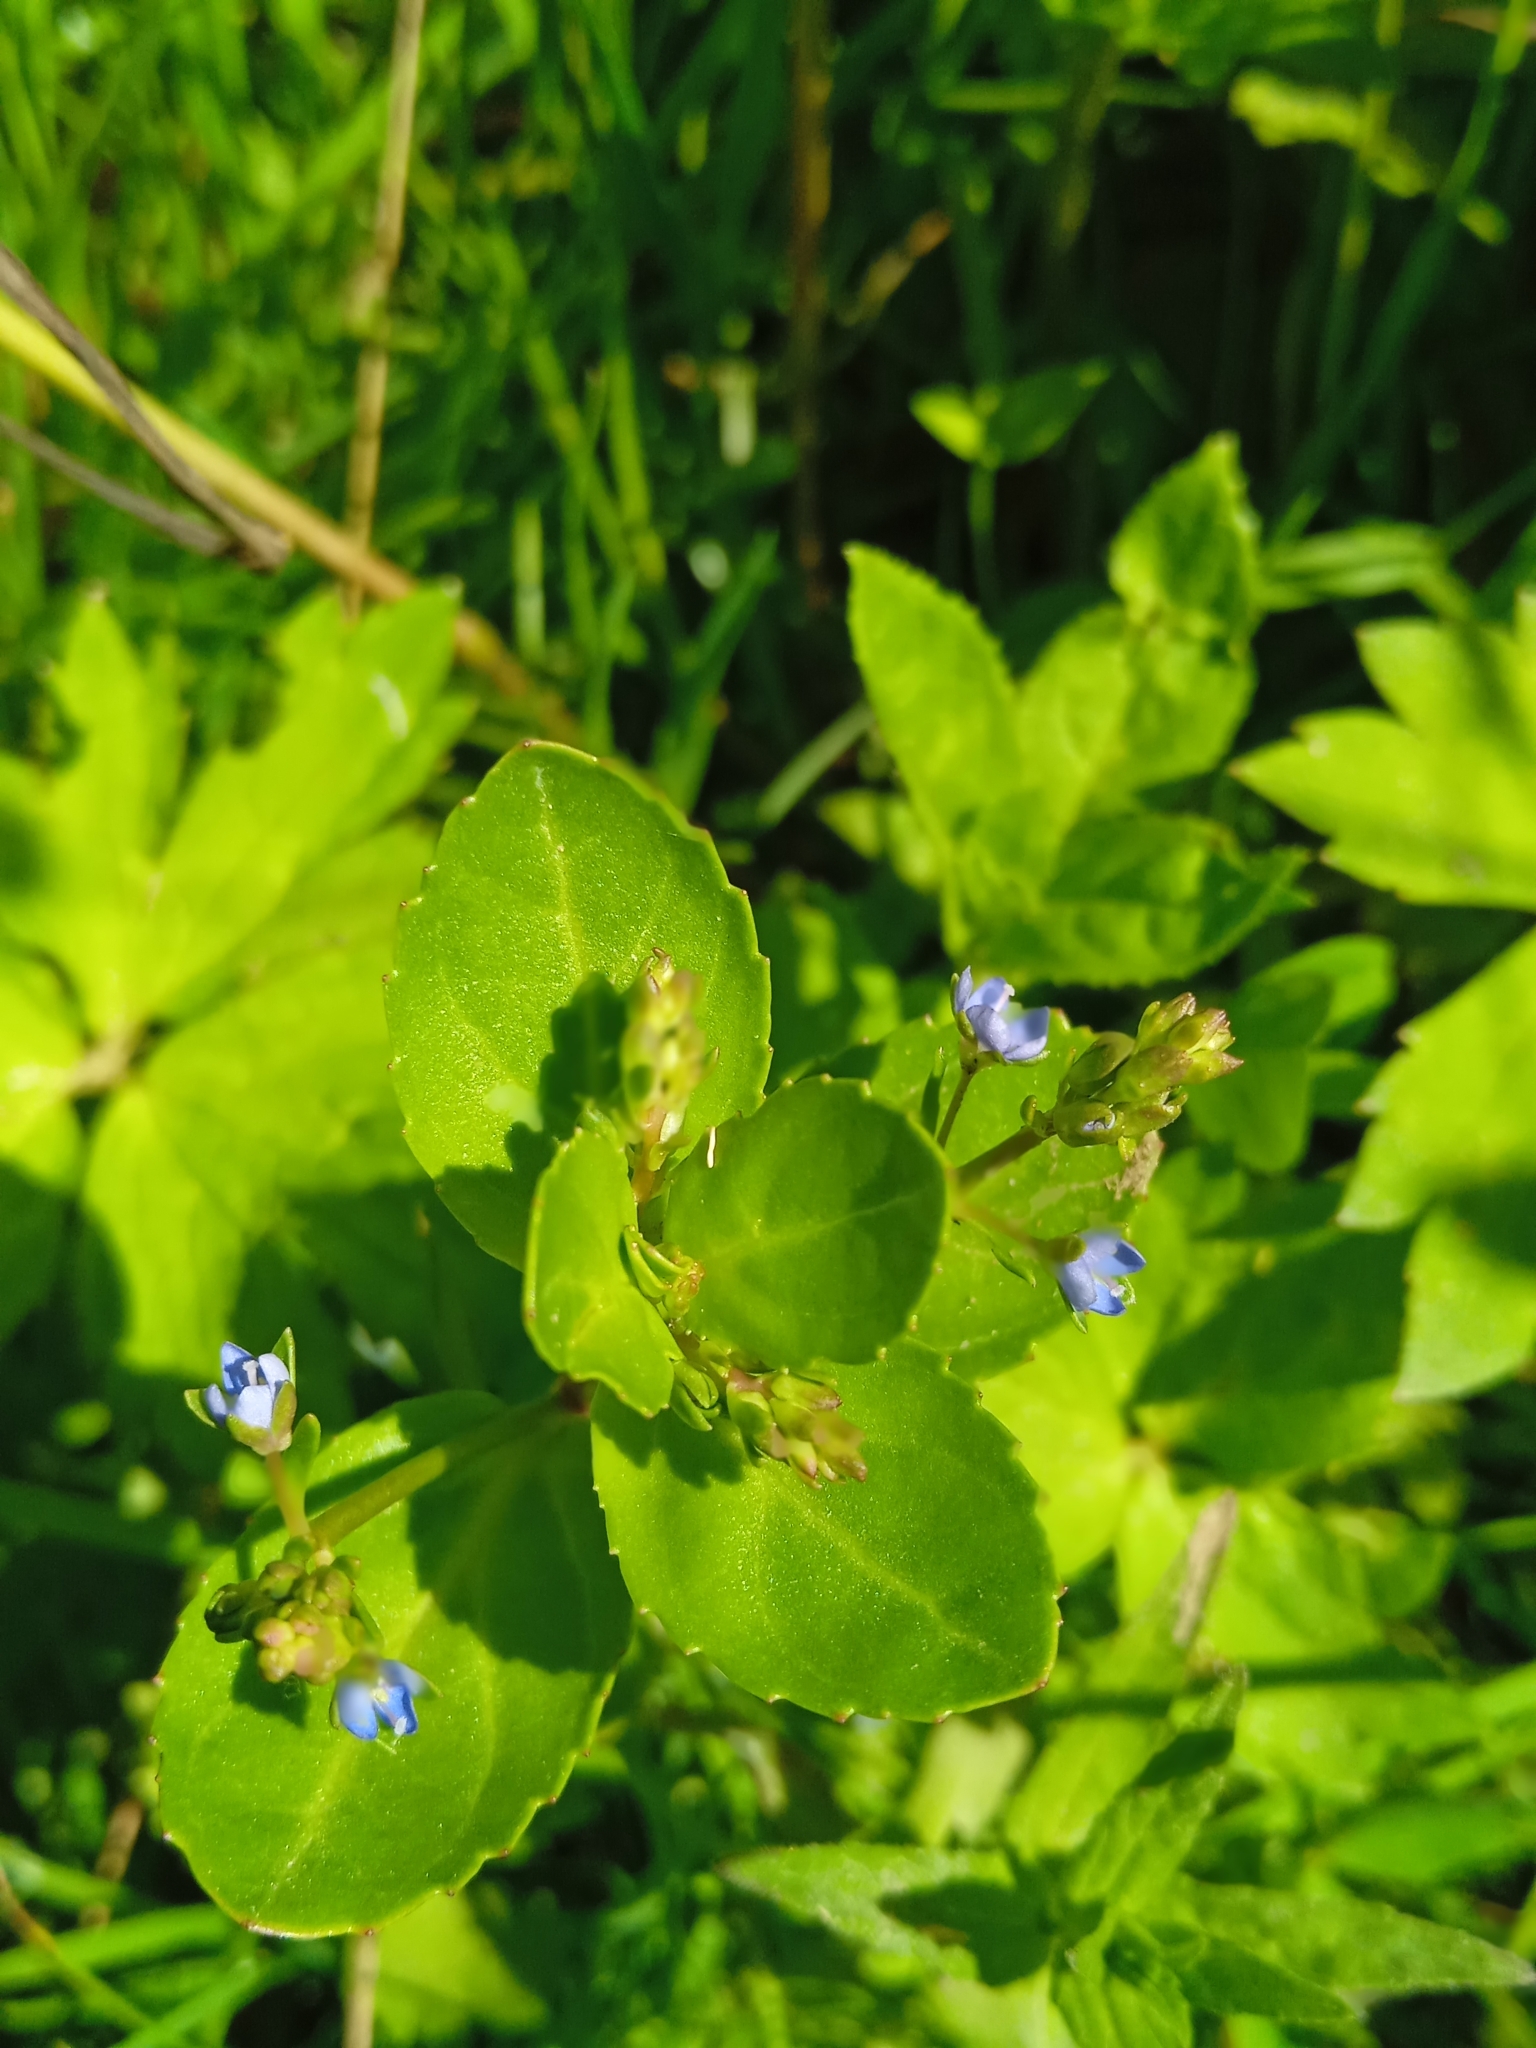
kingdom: Plantae
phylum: Tracheophyta
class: Magnoliopsida
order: Lamiales
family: Plantaginaceae
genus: Veronica
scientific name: Veronica beccabunga
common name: Brooklime
